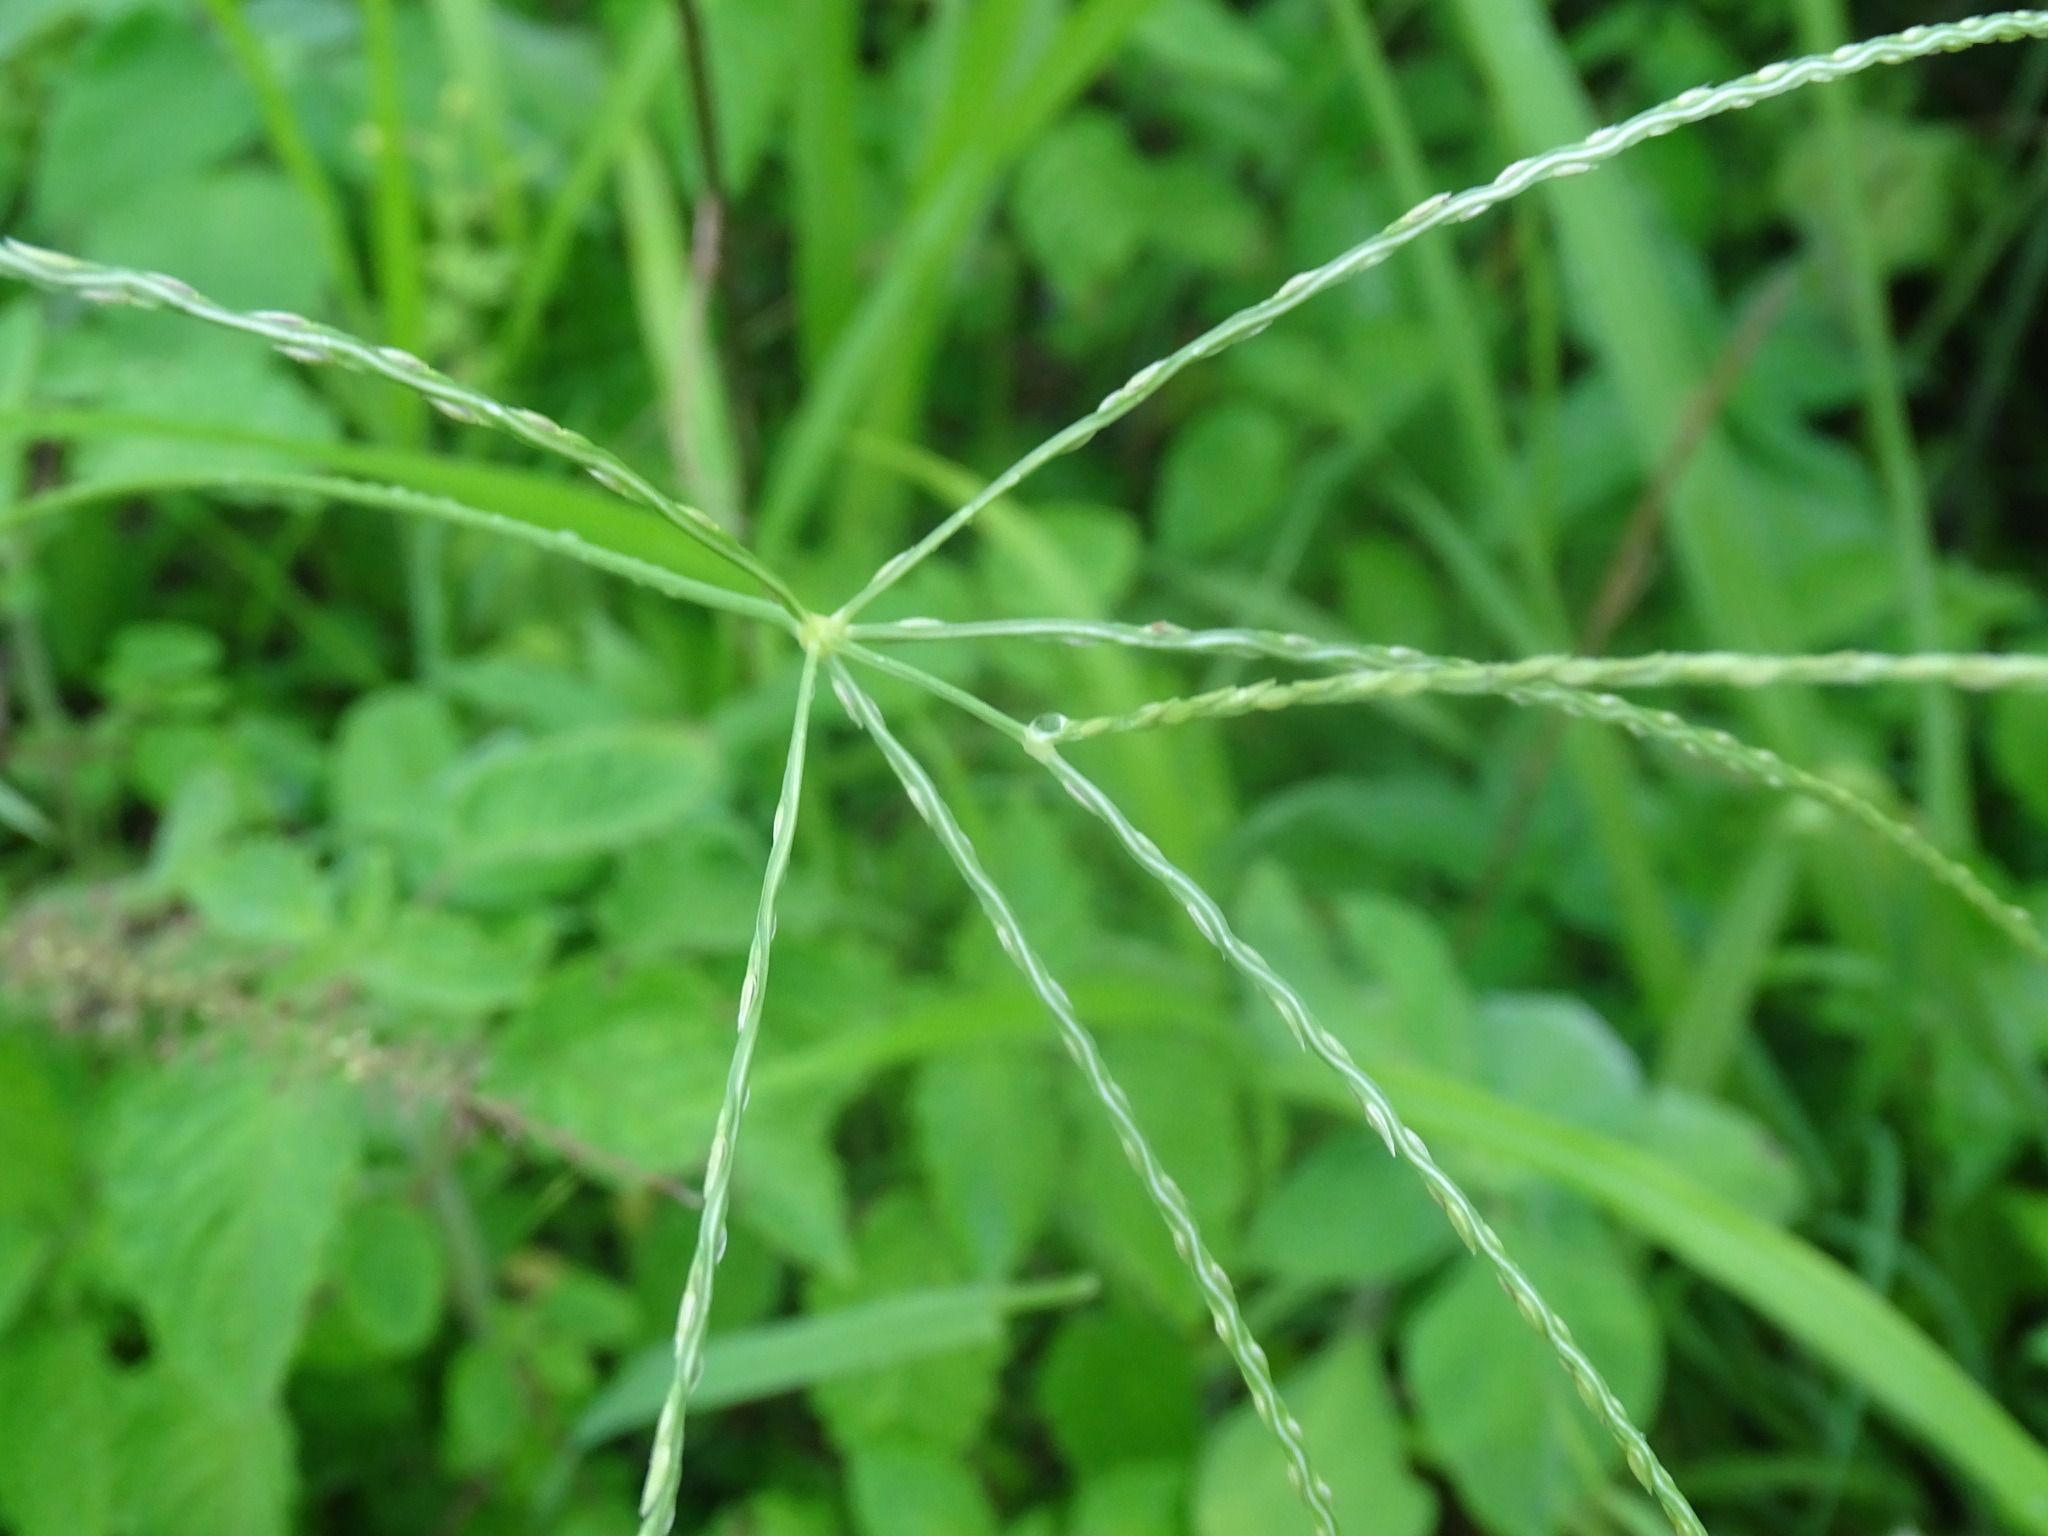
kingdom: Plantae
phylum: Tracheophyta
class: Liliopsida
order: Poales
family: Poaceae
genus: Digitaria
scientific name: Digitaria ciliaris
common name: Tropical finger-grass
